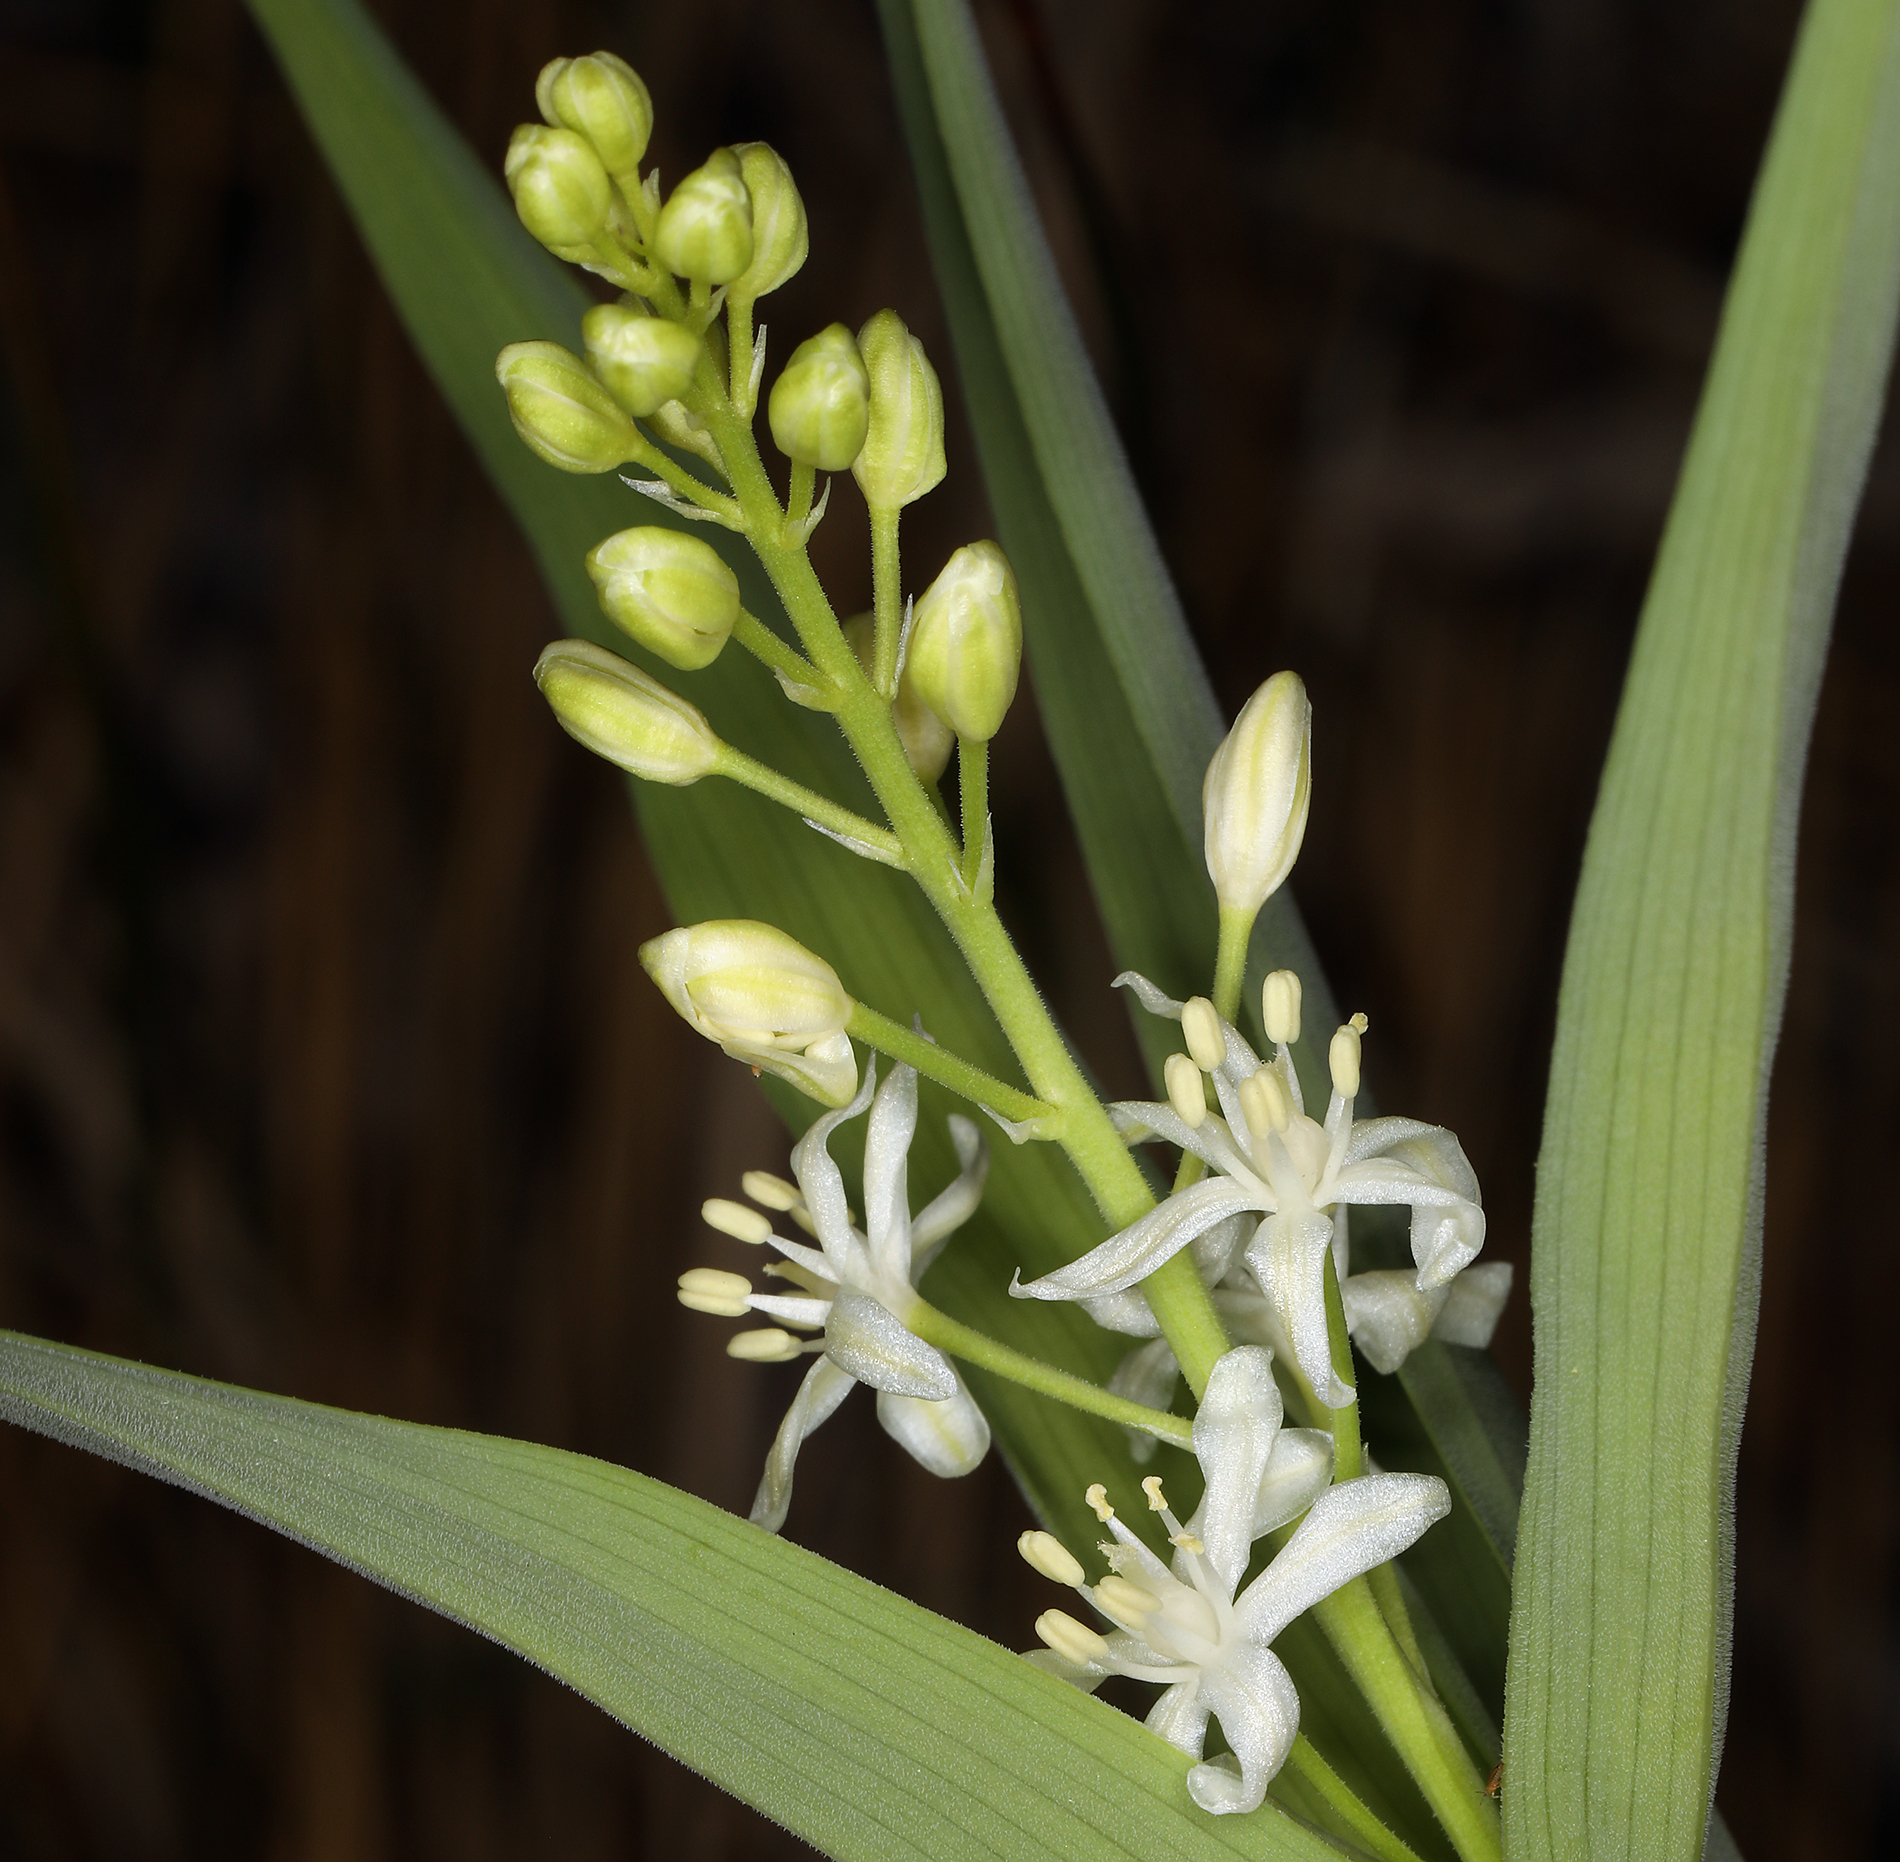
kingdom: Plantae
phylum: Tracheophyta
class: Liliopsida
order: Asparagales
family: Asparagaceae
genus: Maianthemum
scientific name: Maianthemum stellatum
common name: Little false solomon's seal
